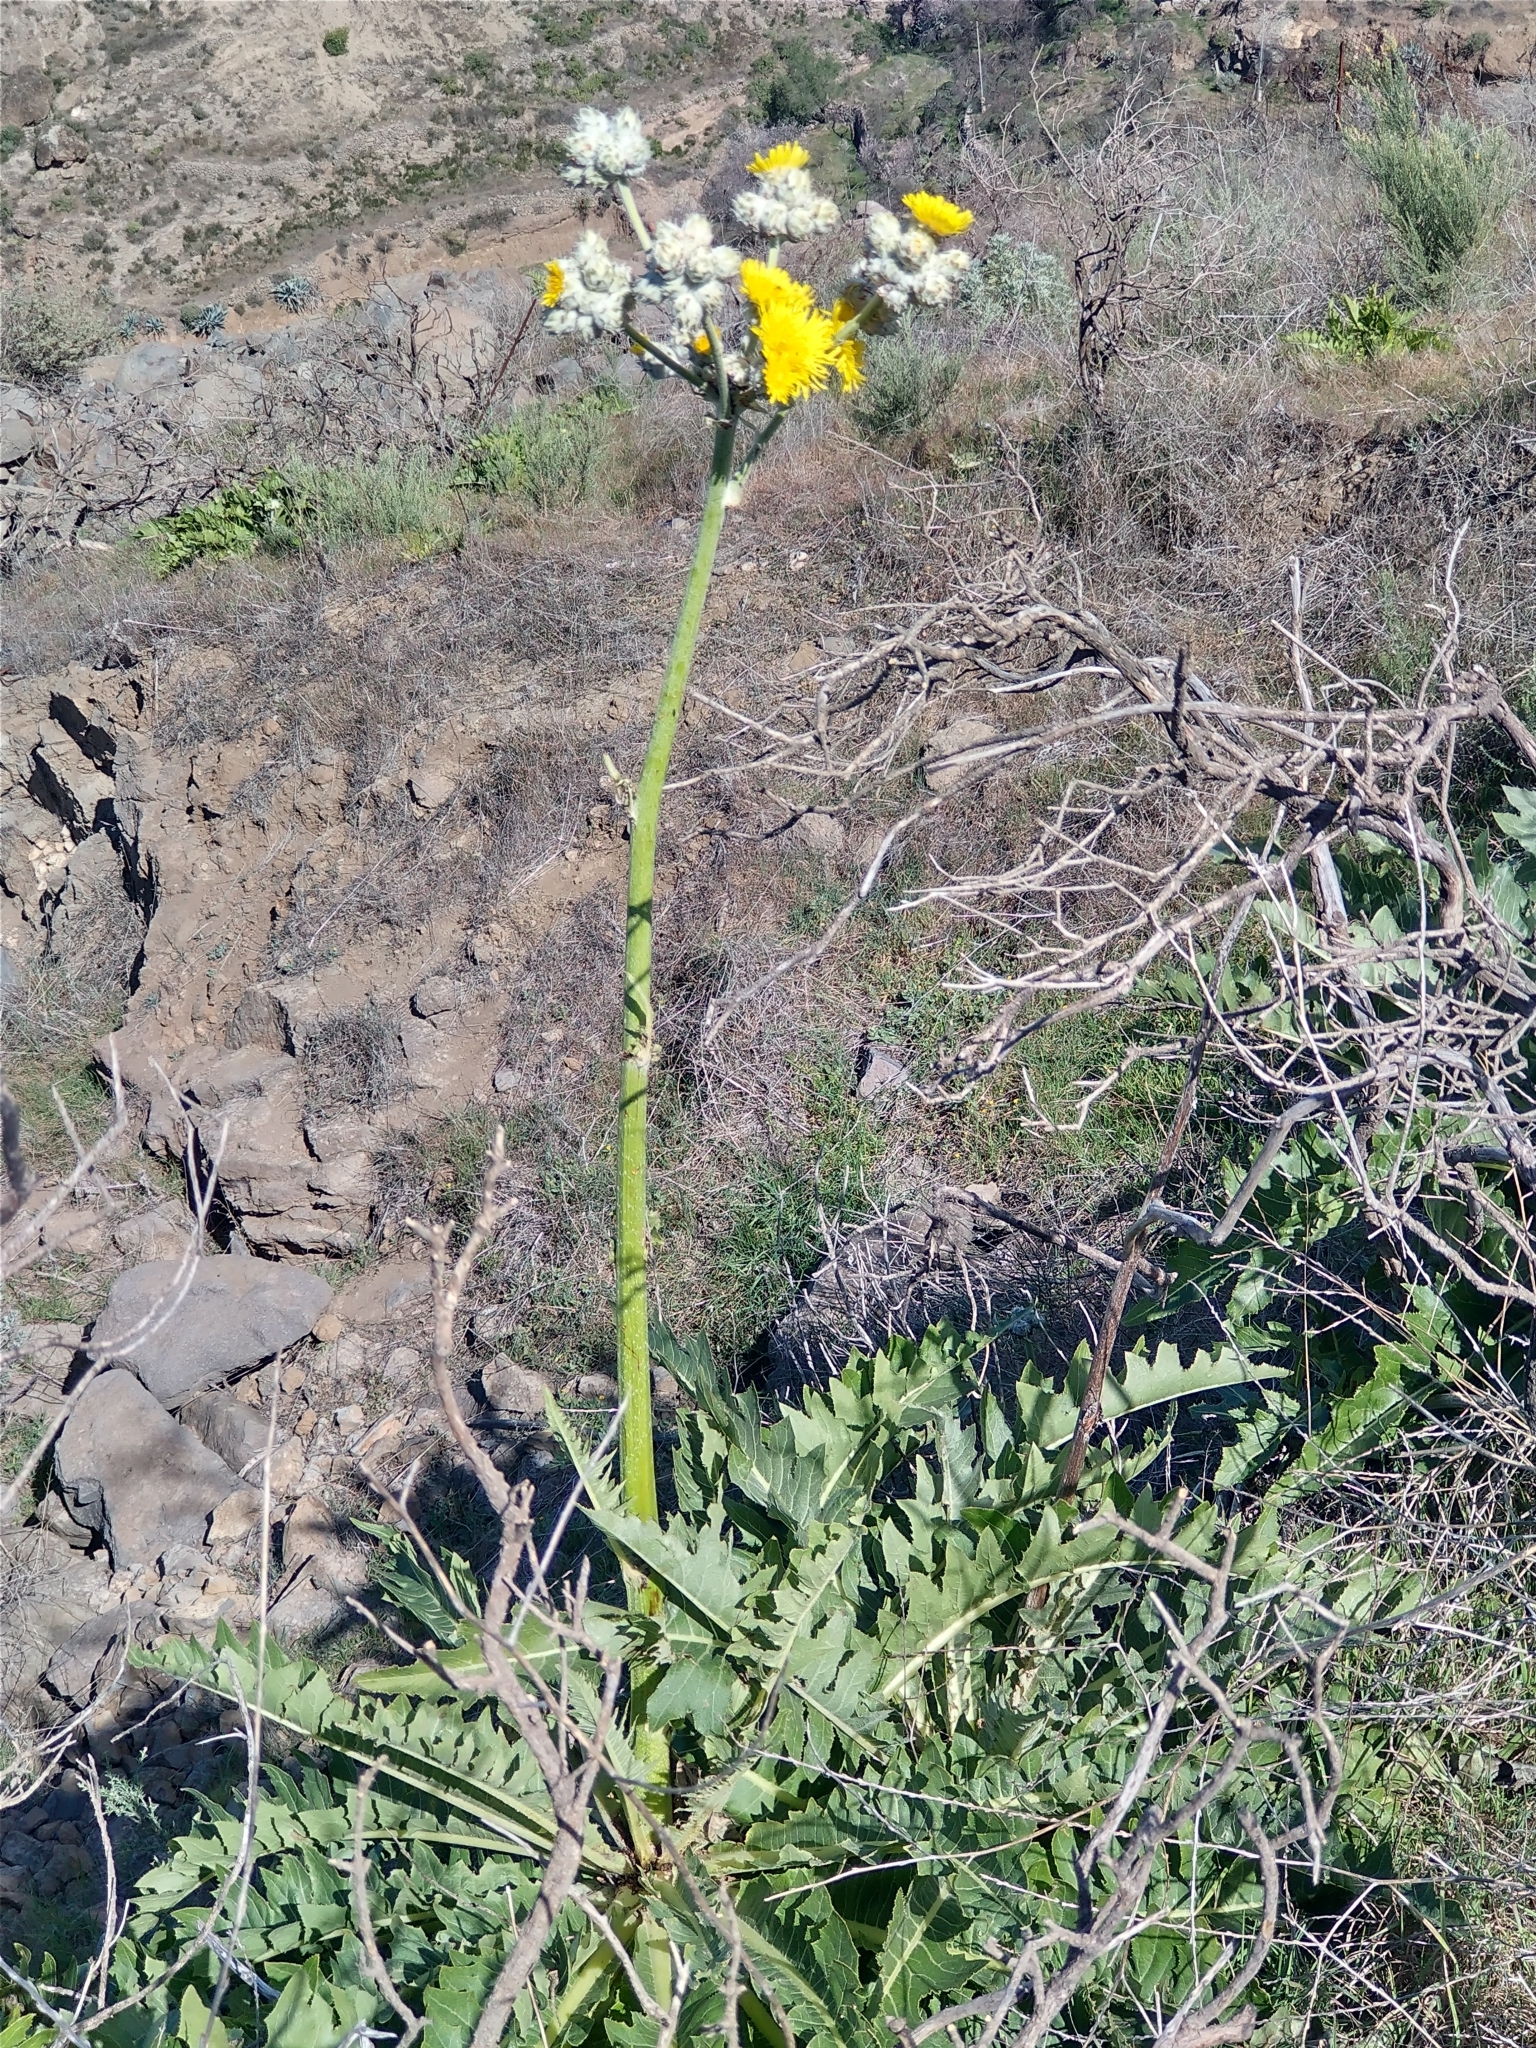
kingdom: Plantae
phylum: Tracheophyta
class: Magnoliopsida
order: Asterales
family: Asteraceae
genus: Sonchus
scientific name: Sonchus acaulis
